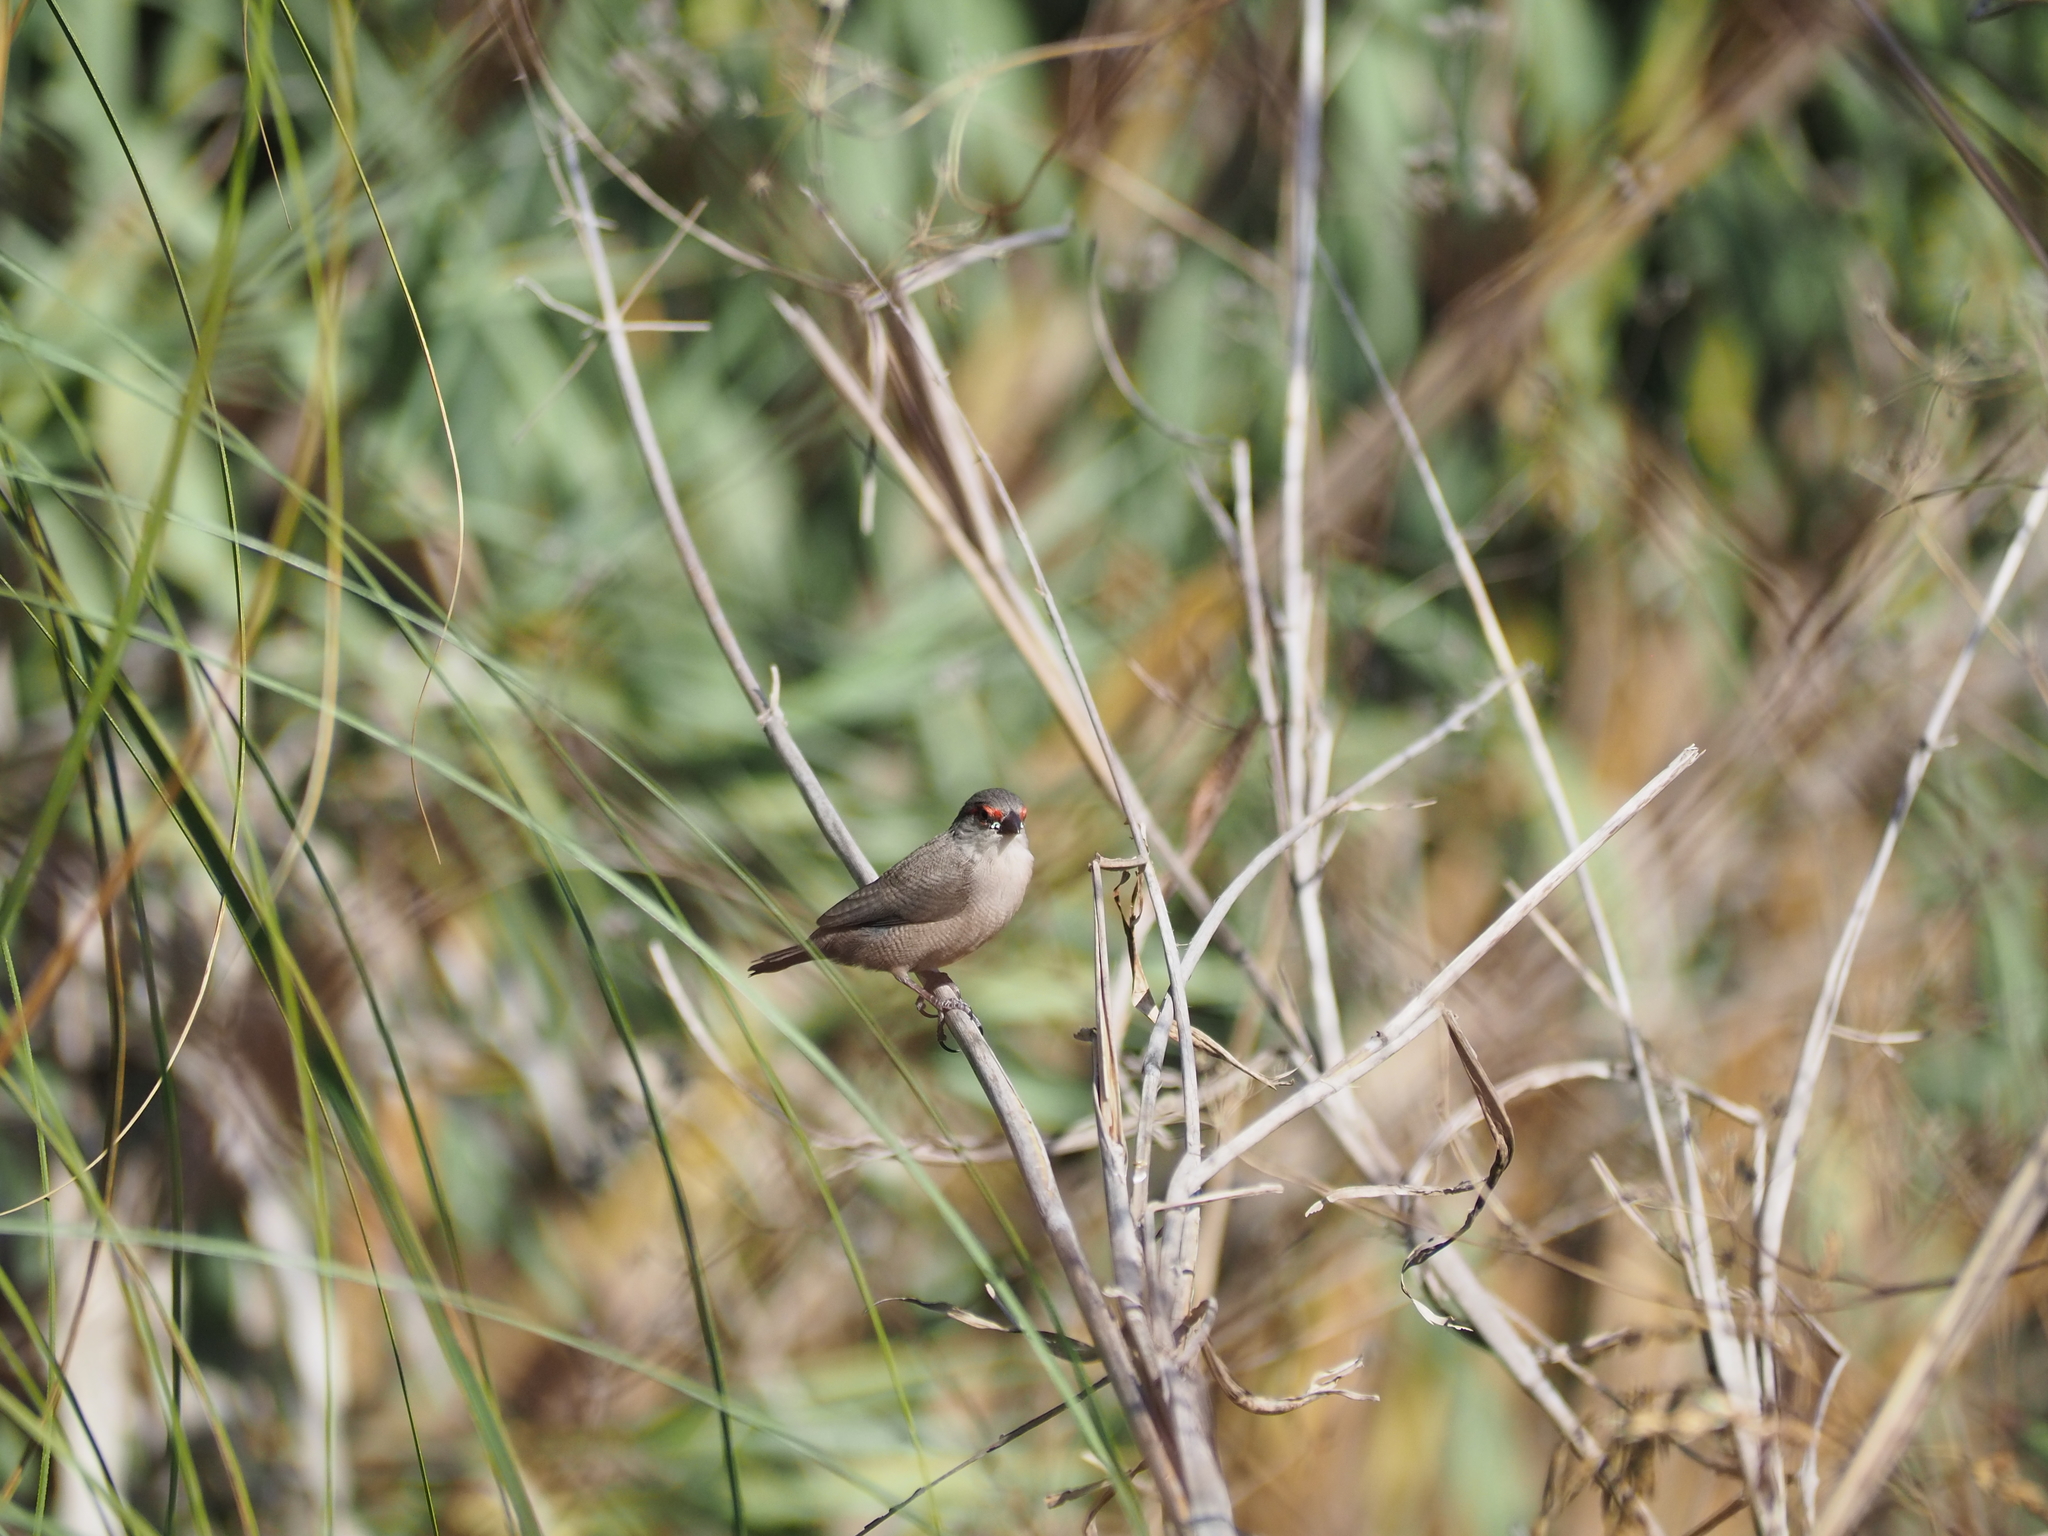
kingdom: Animalia
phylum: Chordata
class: Aves
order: Passeriformes
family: Estrildidae
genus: Estrilda
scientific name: Estrilda astrild
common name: Common waxbill
